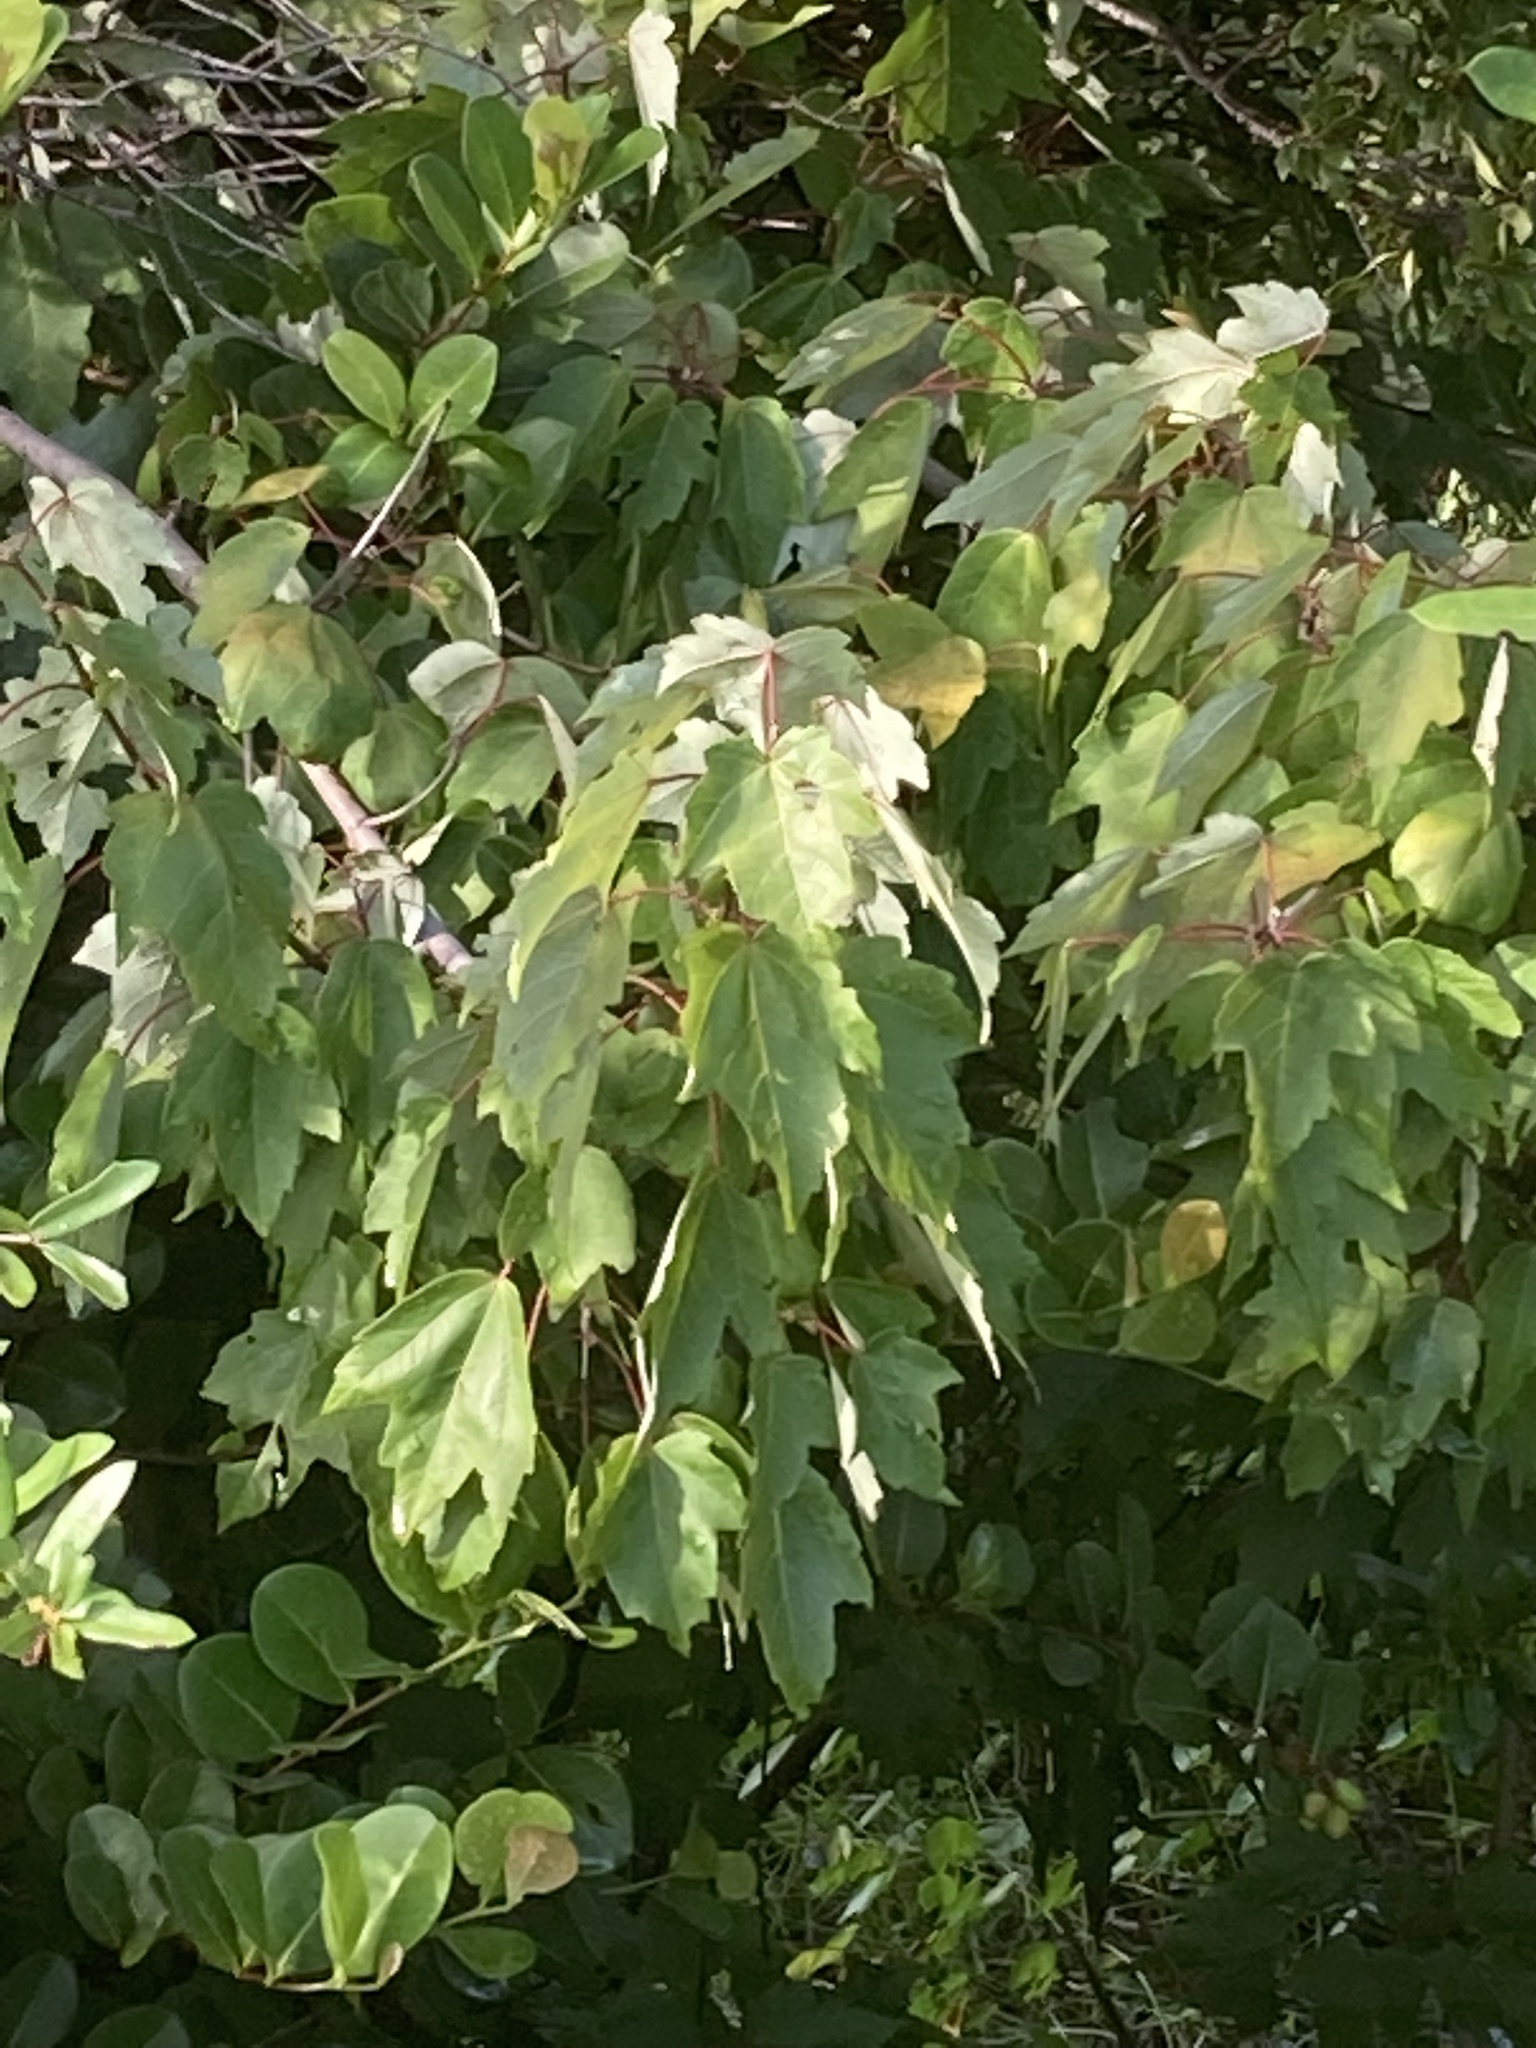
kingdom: Plantae
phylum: Tracheophyta
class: Magnoliopsida
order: Sapindales
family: Sapindaceae
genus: Acer
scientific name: Acer rubrum
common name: Red maple
